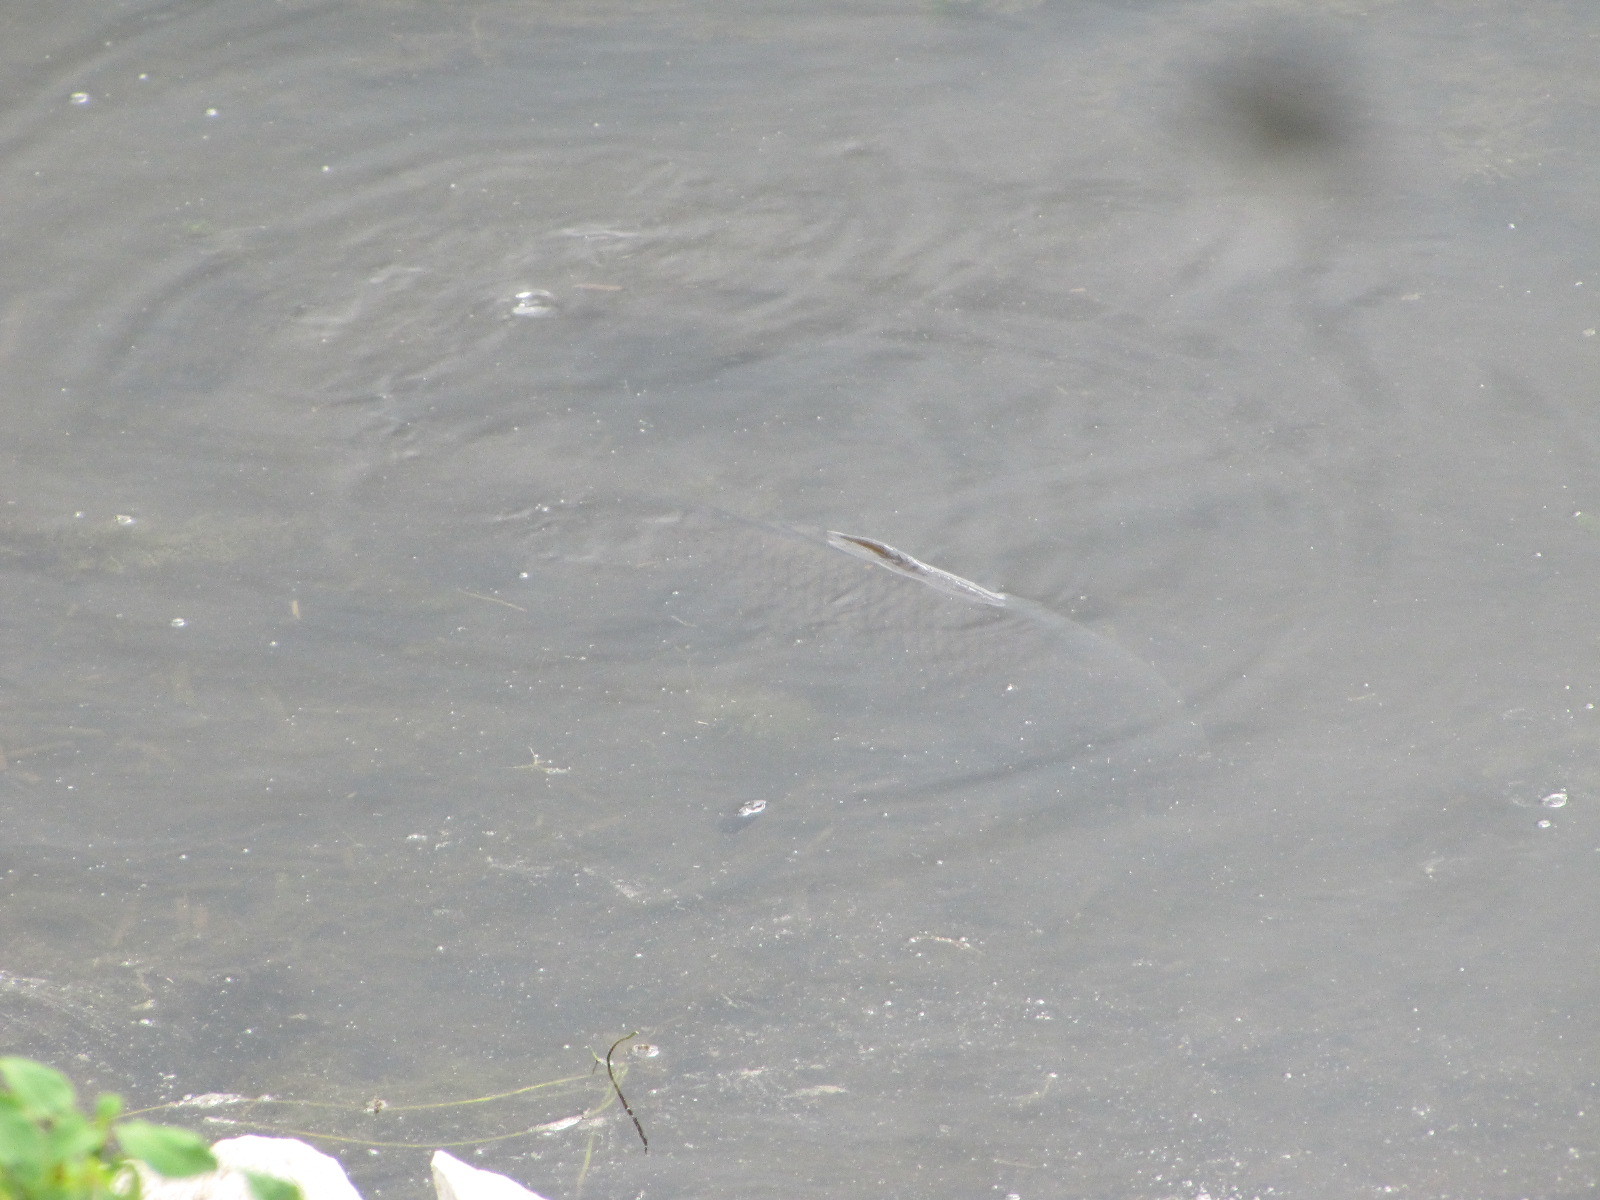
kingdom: Animalia
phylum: Chordata
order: Cypriniformes
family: Cyprinidae
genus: Cyprinus
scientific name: Cyprinus carpio
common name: Common carp
